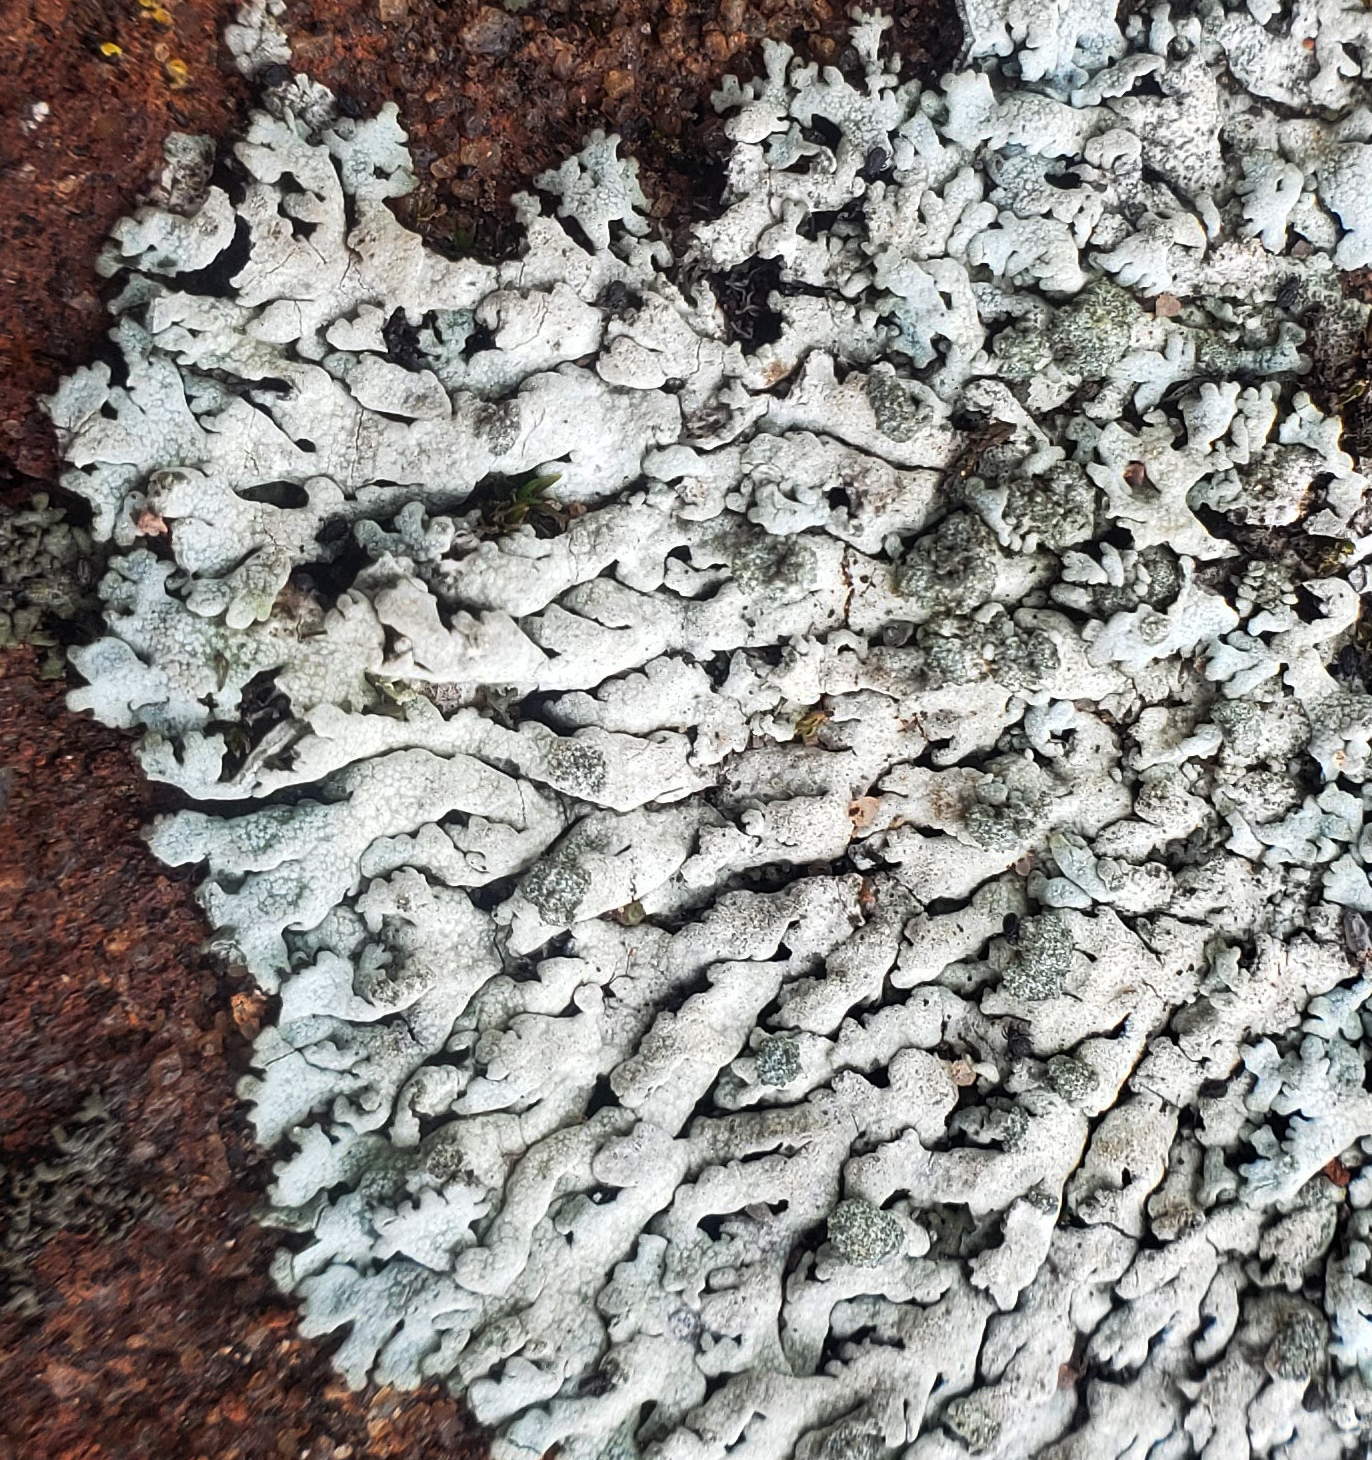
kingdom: Fungi
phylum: Ascomycota
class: Lecanoromycetes
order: Caliciales
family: Physciaceae
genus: Physcia
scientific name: Physcia caesia
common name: Blue-gray rosette lichen
